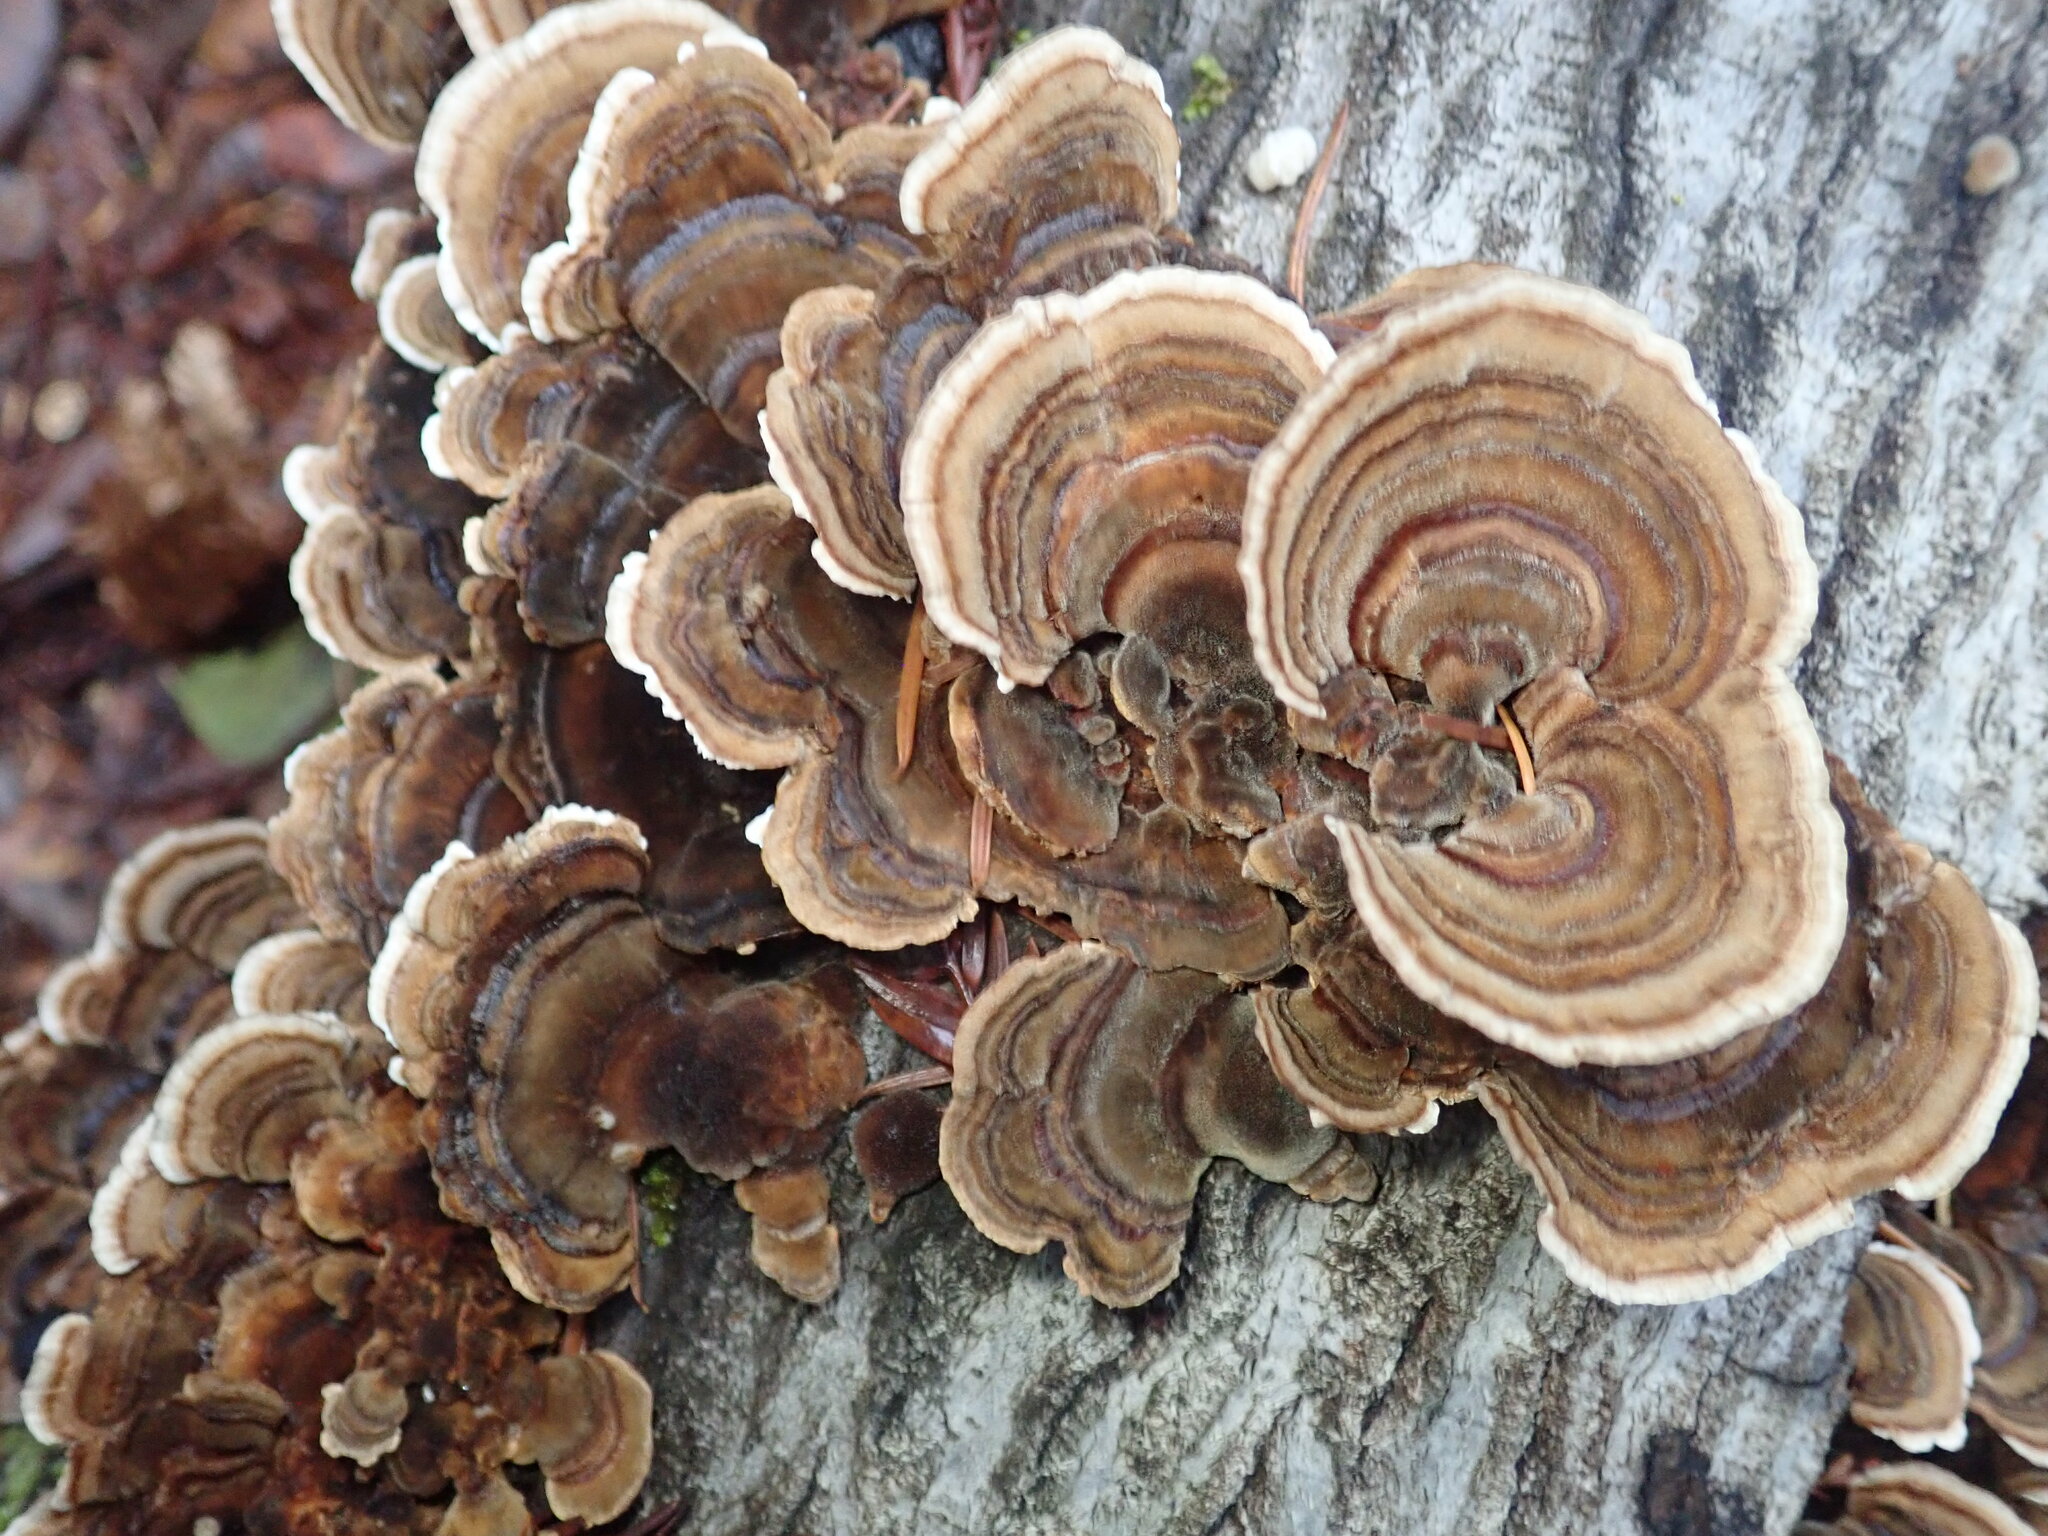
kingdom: Fungi
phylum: Basidiomycota
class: Agaricomycetes
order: Polyporales
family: Polyporaceae
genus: Trametes
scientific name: Trametes versicolor
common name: Turkeytail
